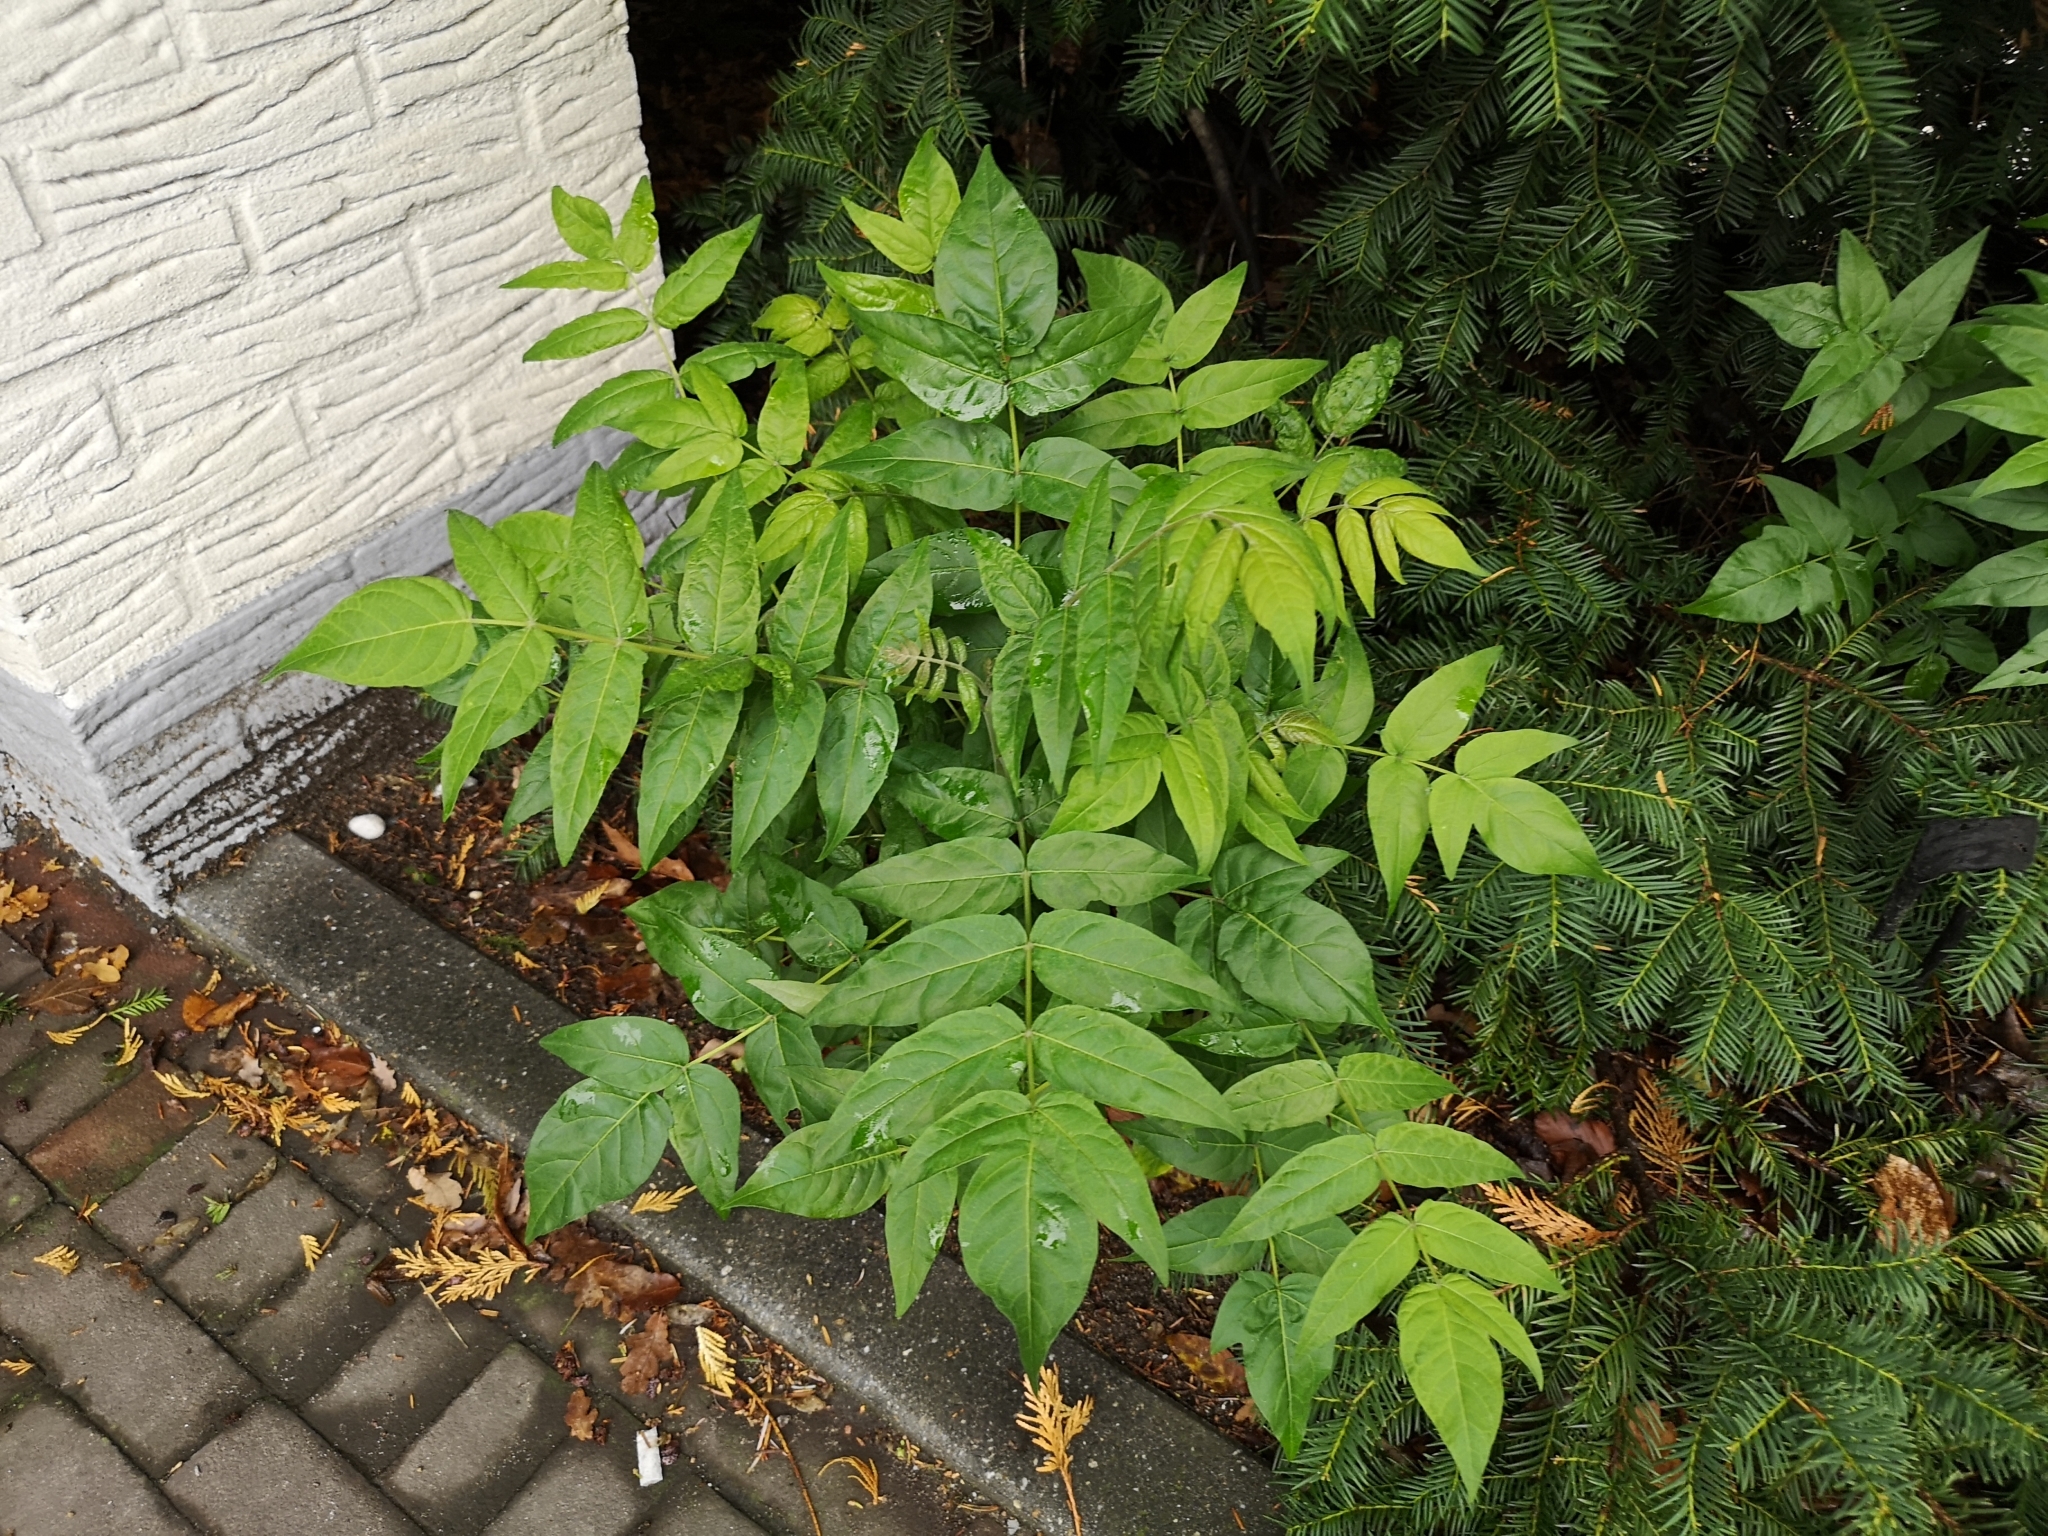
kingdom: Plantae
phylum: Tracheophyta
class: Magnoliopsida
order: Sapindales
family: Simaroubaceae
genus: Ailanthus
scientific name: Ailanthus altissima
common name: Tree-of-heaven
